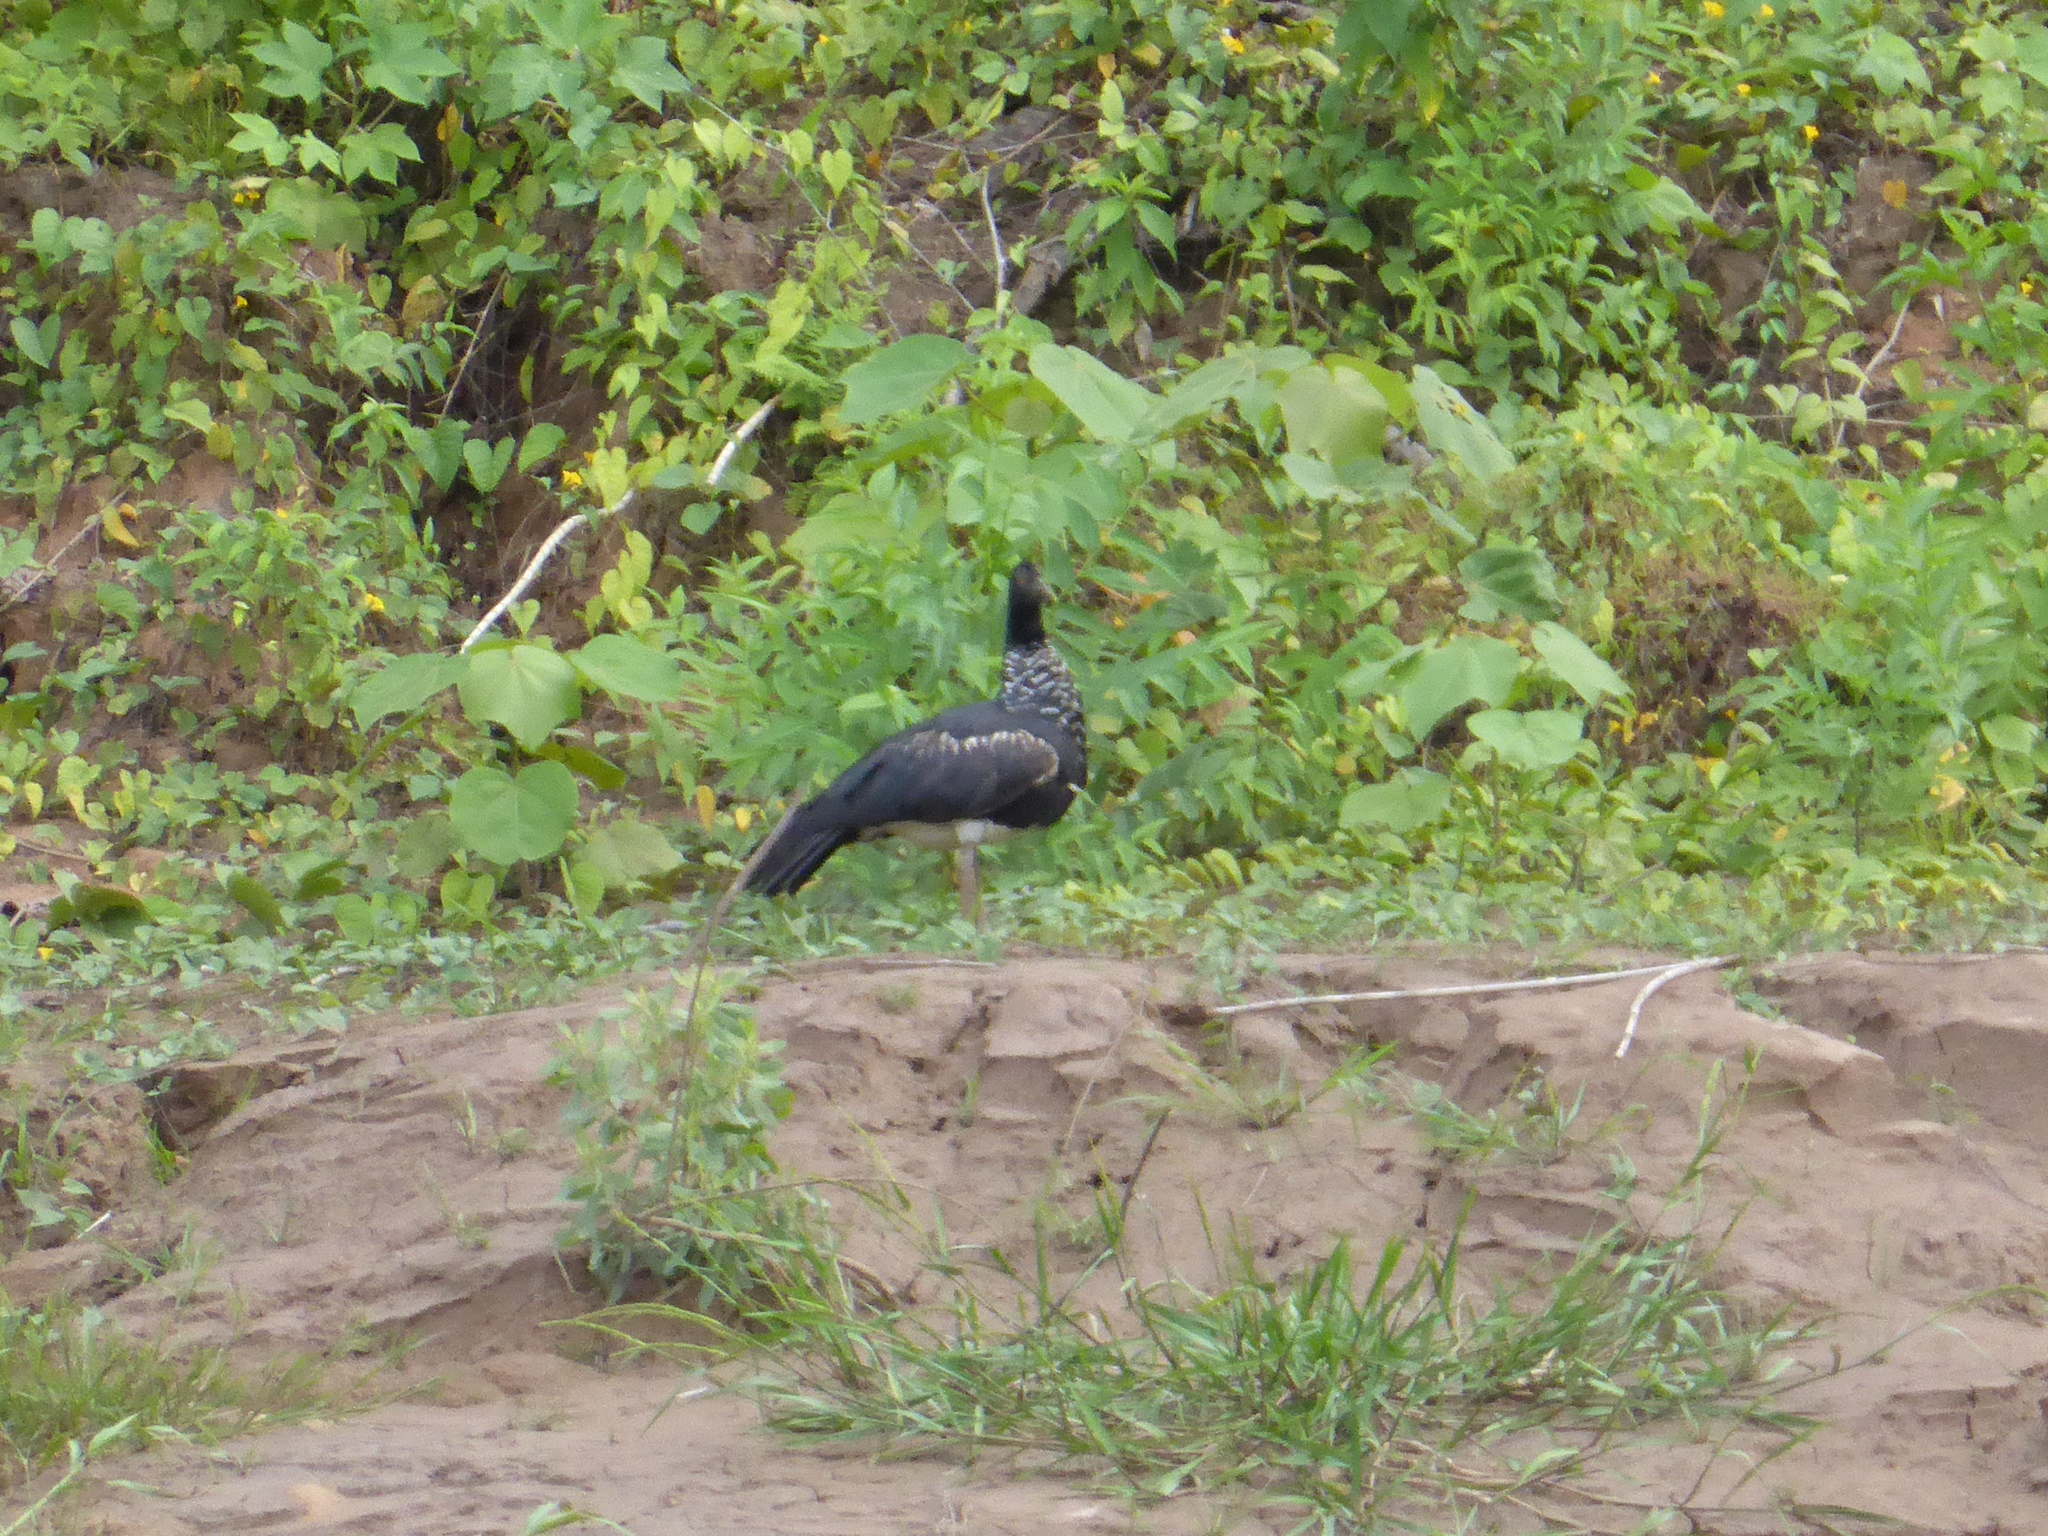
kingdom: Animalia
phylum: Chordata
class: Aves
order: Anseriformes
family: Anhimidae
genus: Anhima
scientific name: Anhima cornuta
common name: Horned screamer
